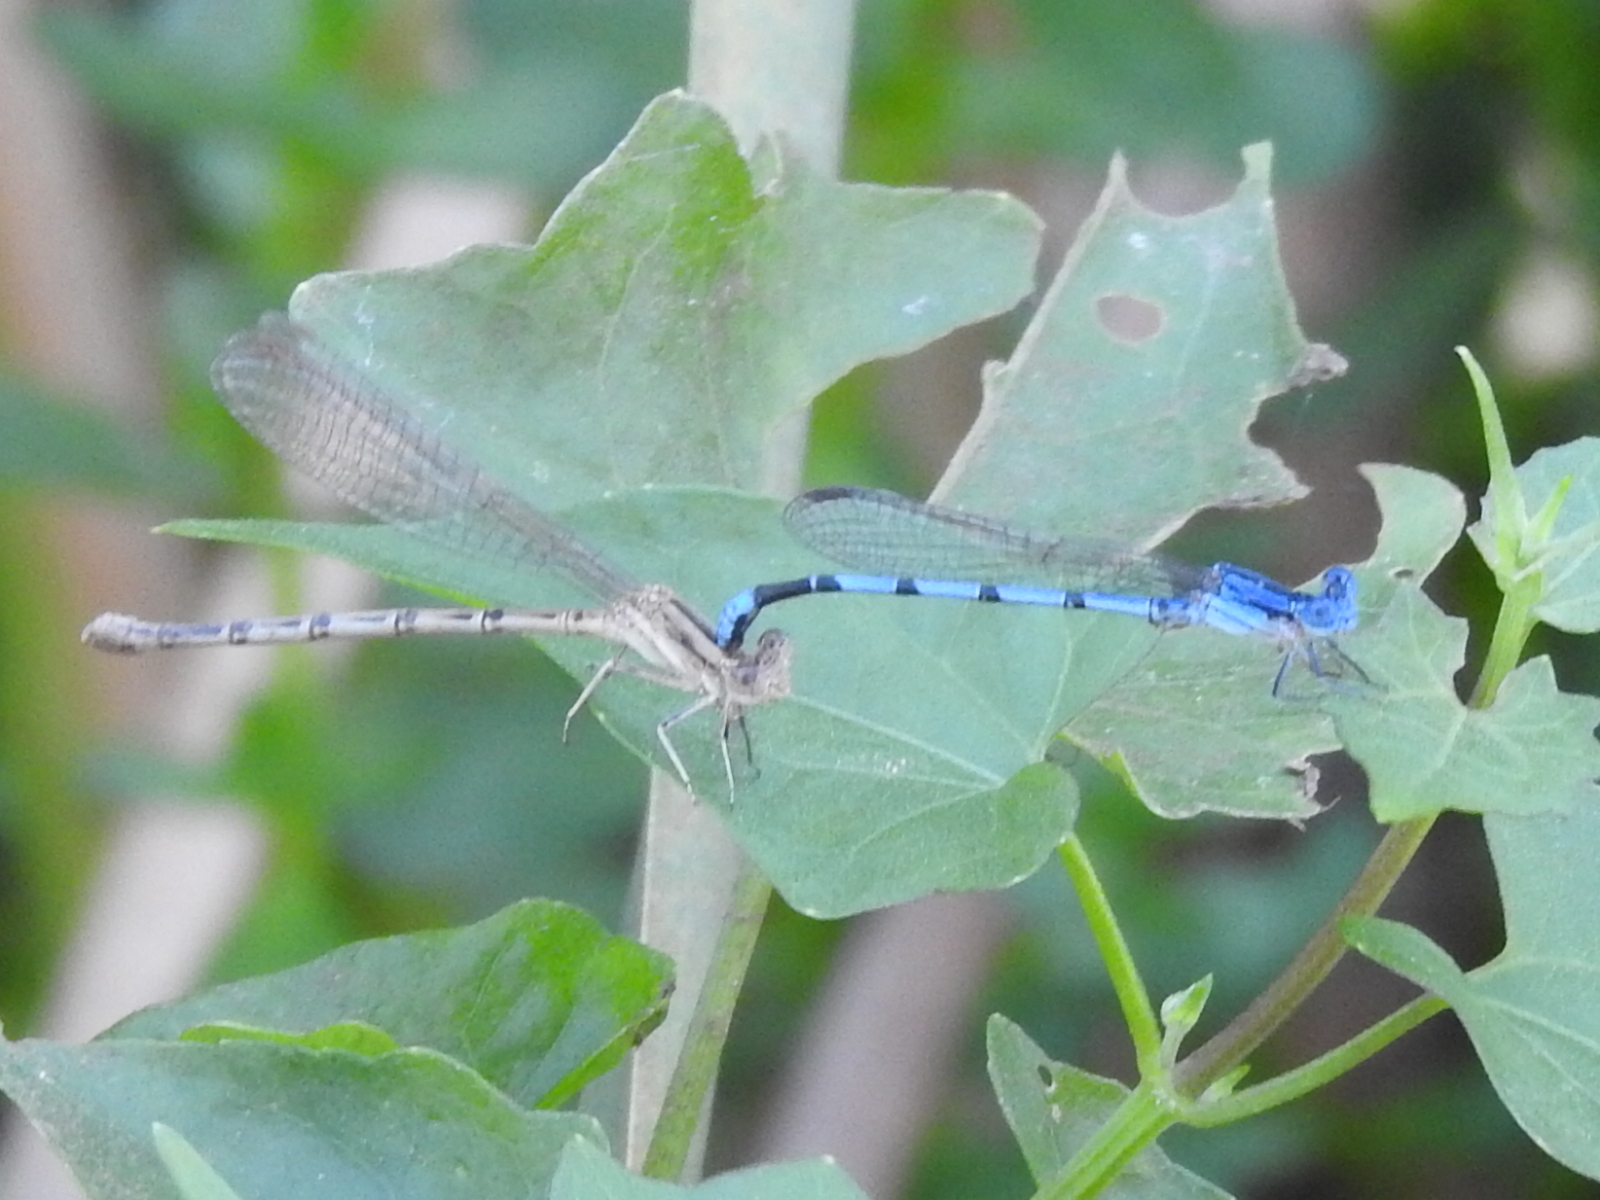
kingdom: Animalia
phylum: Arthropoda
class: Insecta
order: Odonata
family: Coenagrionidae
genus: Argia
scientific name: Argia nahuana
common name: Aztec dancer
